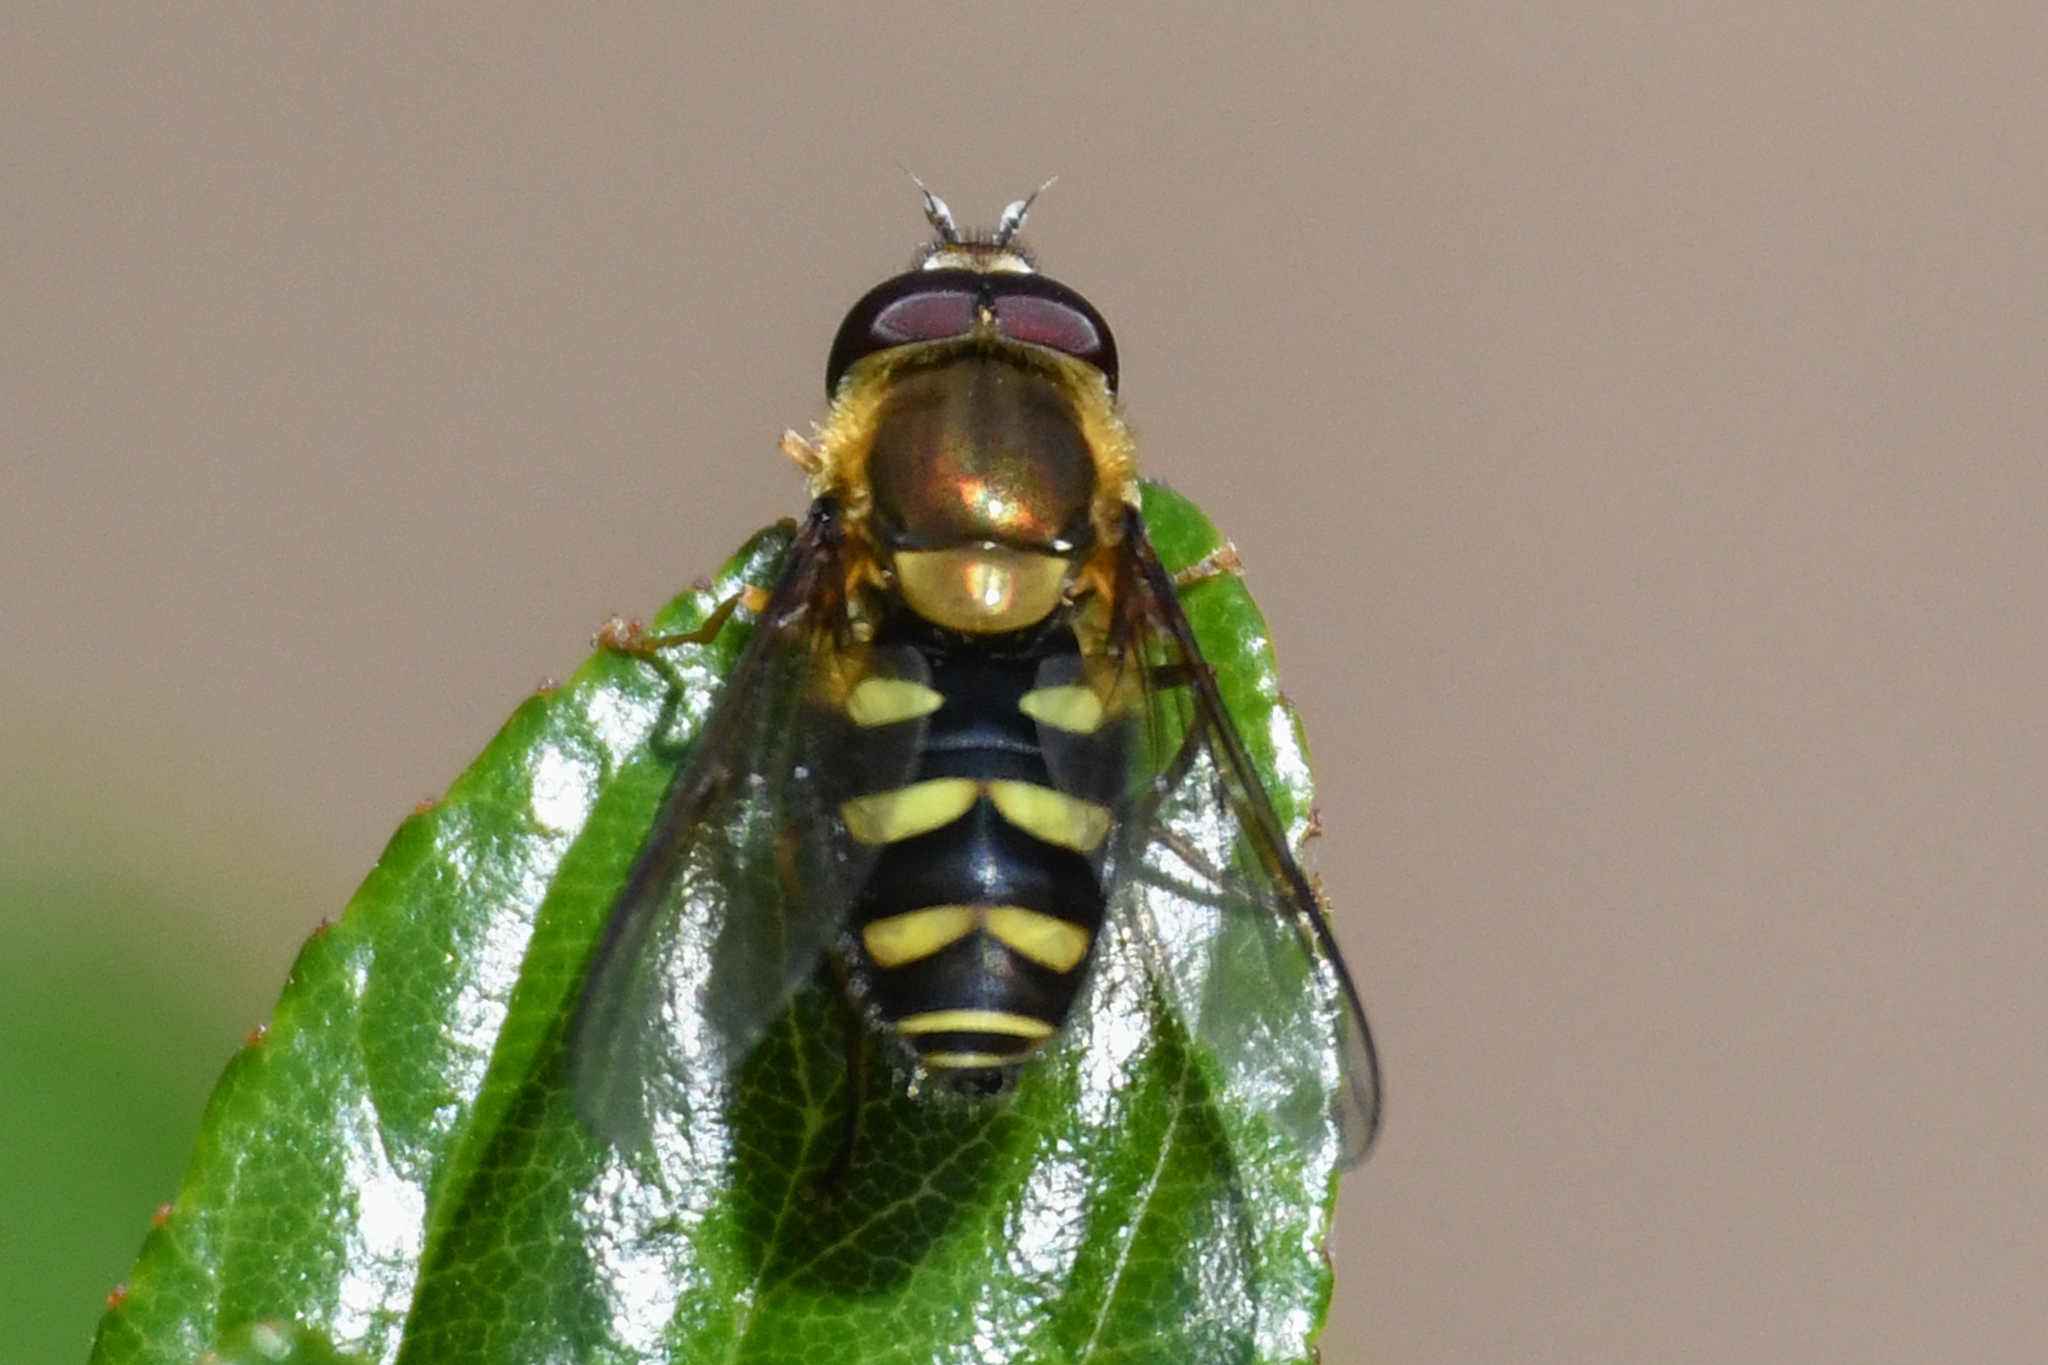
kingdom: Animalia
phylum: Arthropoda
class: Insecta
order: Diptera
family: Syrphidae
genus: Syrphus
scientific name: Syrphus opinator
